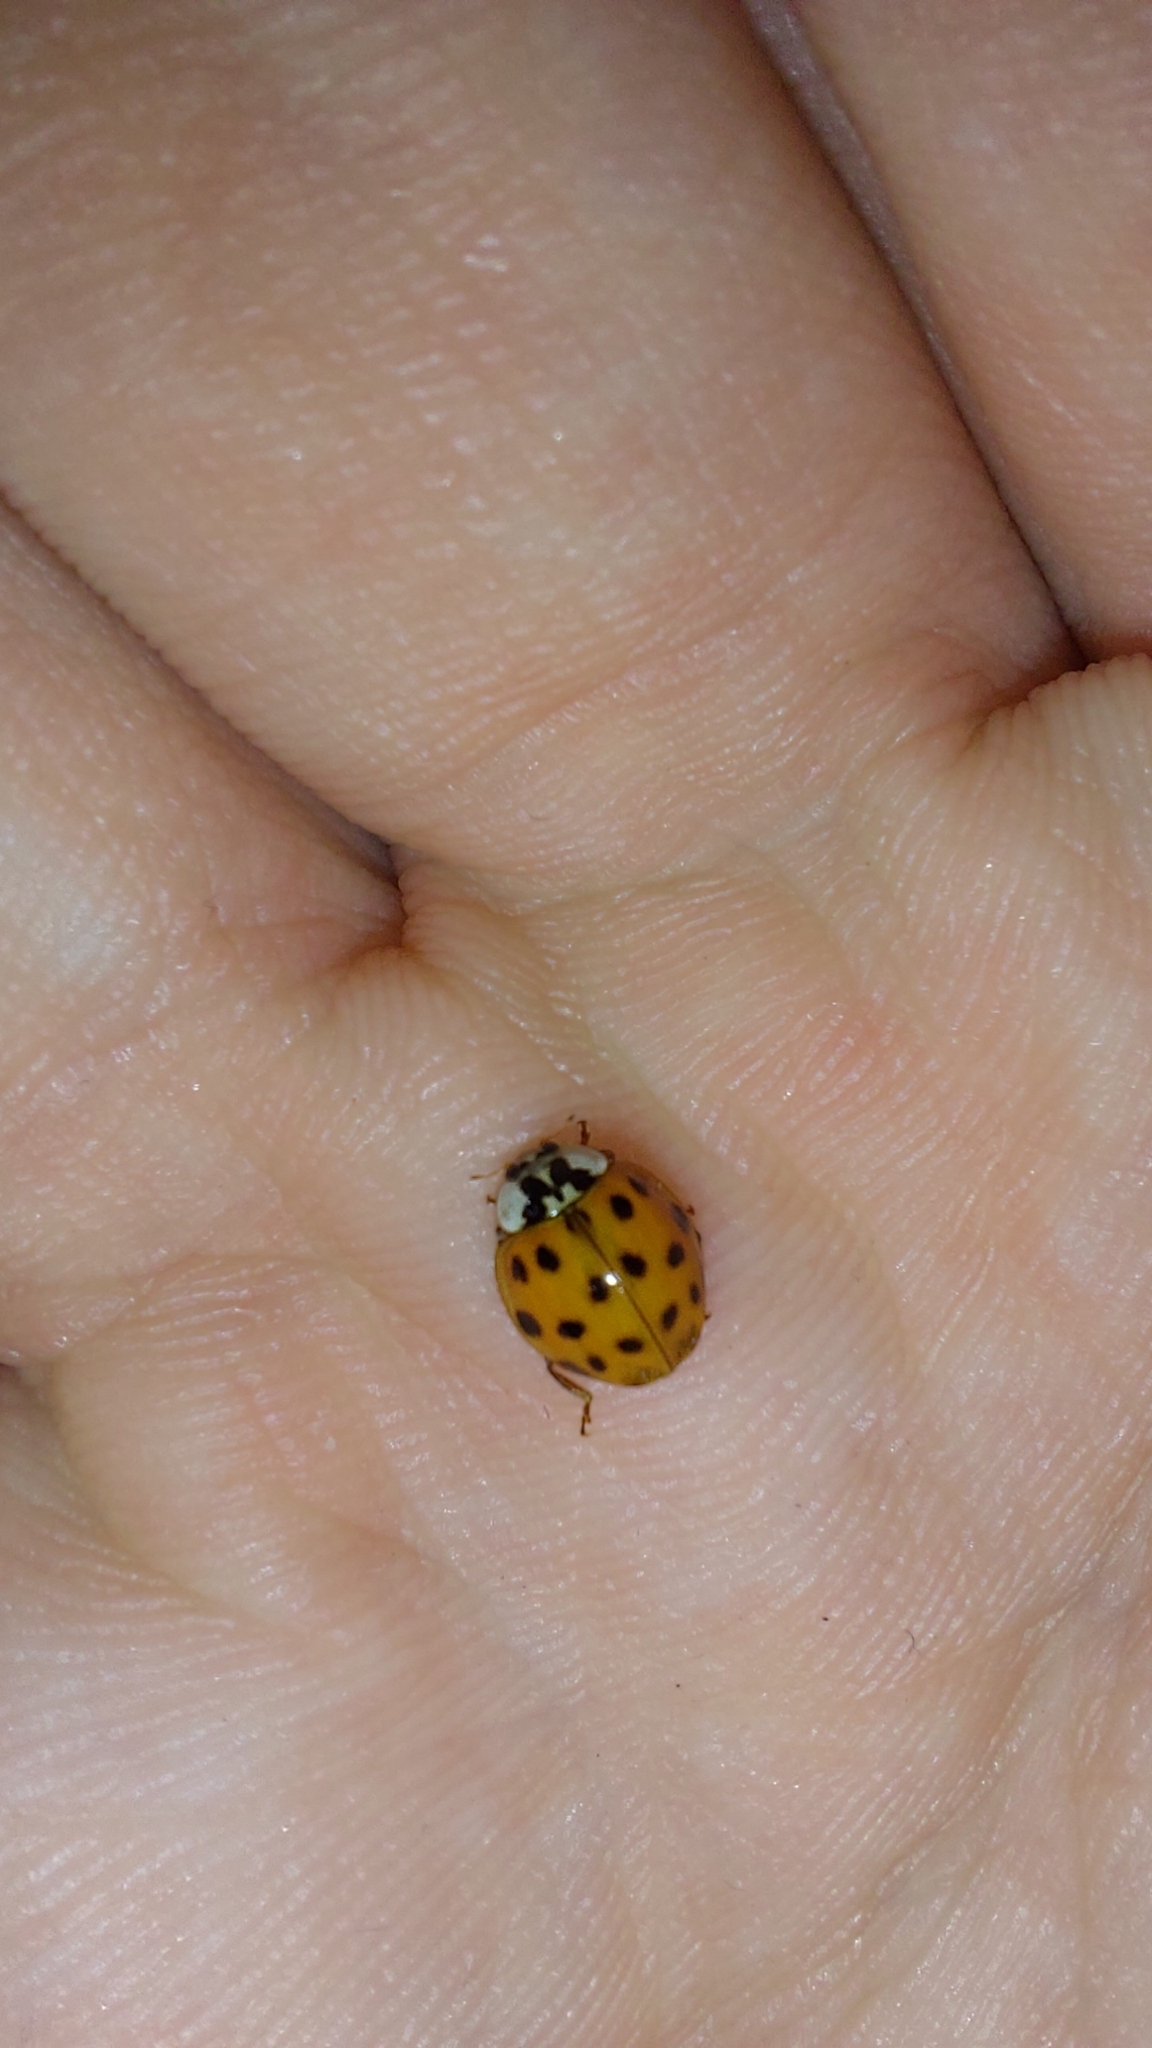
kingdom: Animalia
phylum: Arthropoda
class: Insecta
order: Coleoptera
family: Coccinellidae
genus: Harmonia
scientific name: Harmonia axyridis
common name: Harlequin ladybird
